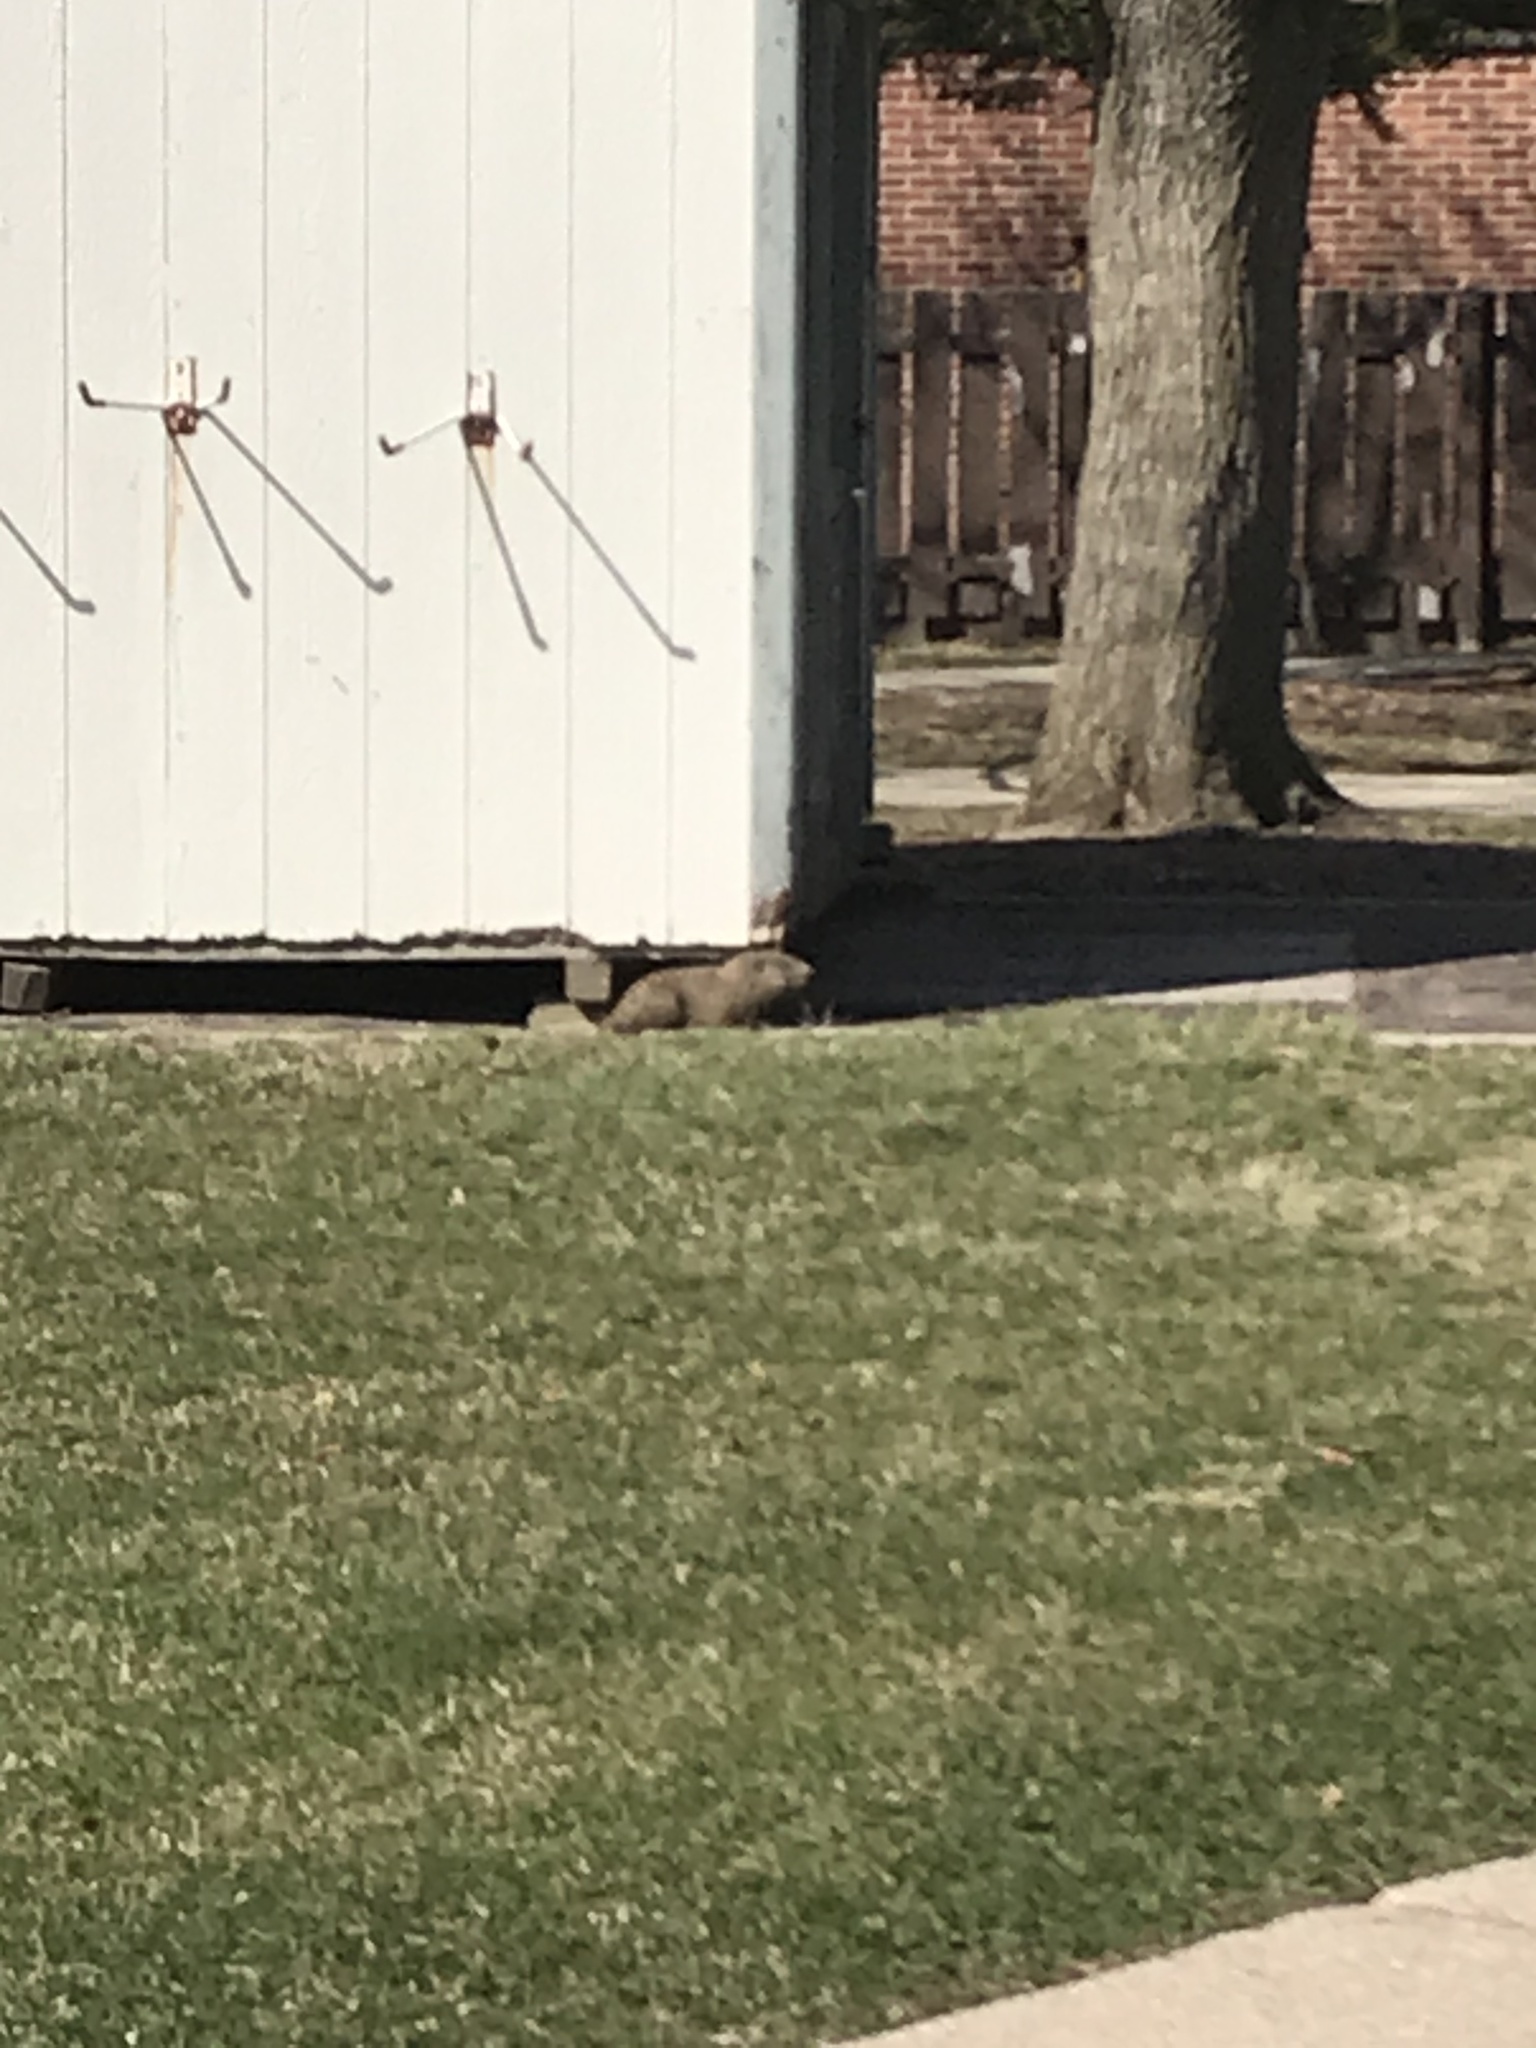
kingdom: Animalia
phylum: Chordata
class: Mammalia
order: Rodentia
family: Sciuridae
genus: Marmota
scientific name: Marmota monax
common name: Groundhog
